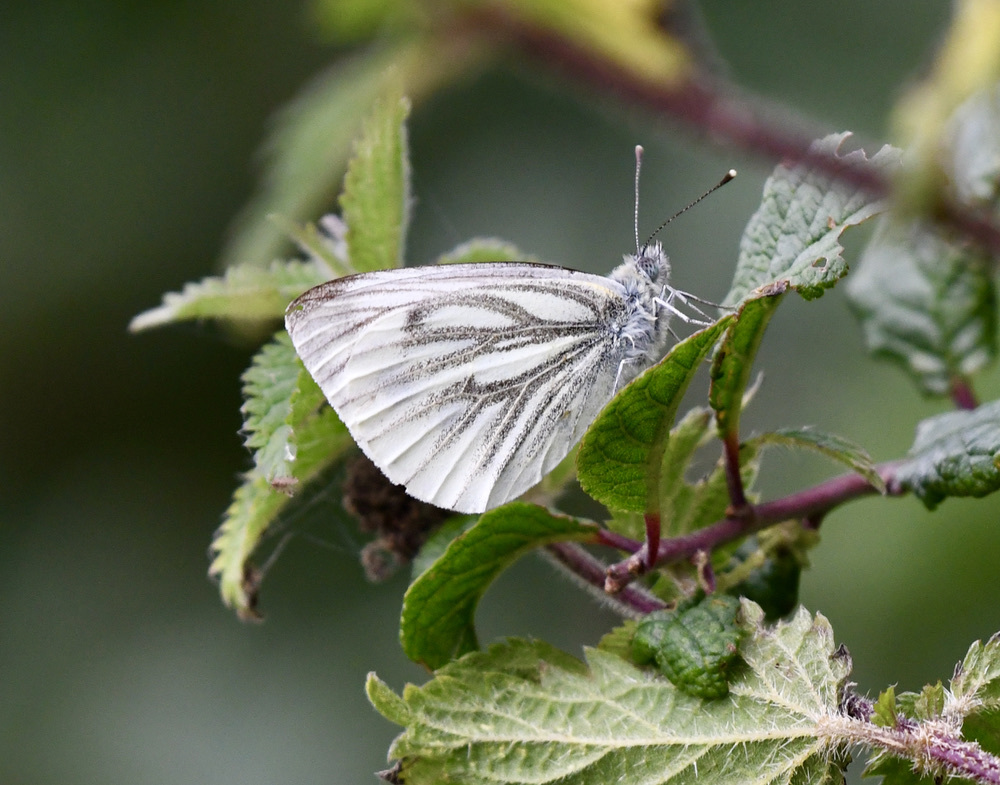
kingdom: Animalia
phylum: Arthropoda
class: Insecta
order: Lepidoptera
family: Pieridae
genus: Pieris
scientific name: Pieris napi
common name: Green-veined white
